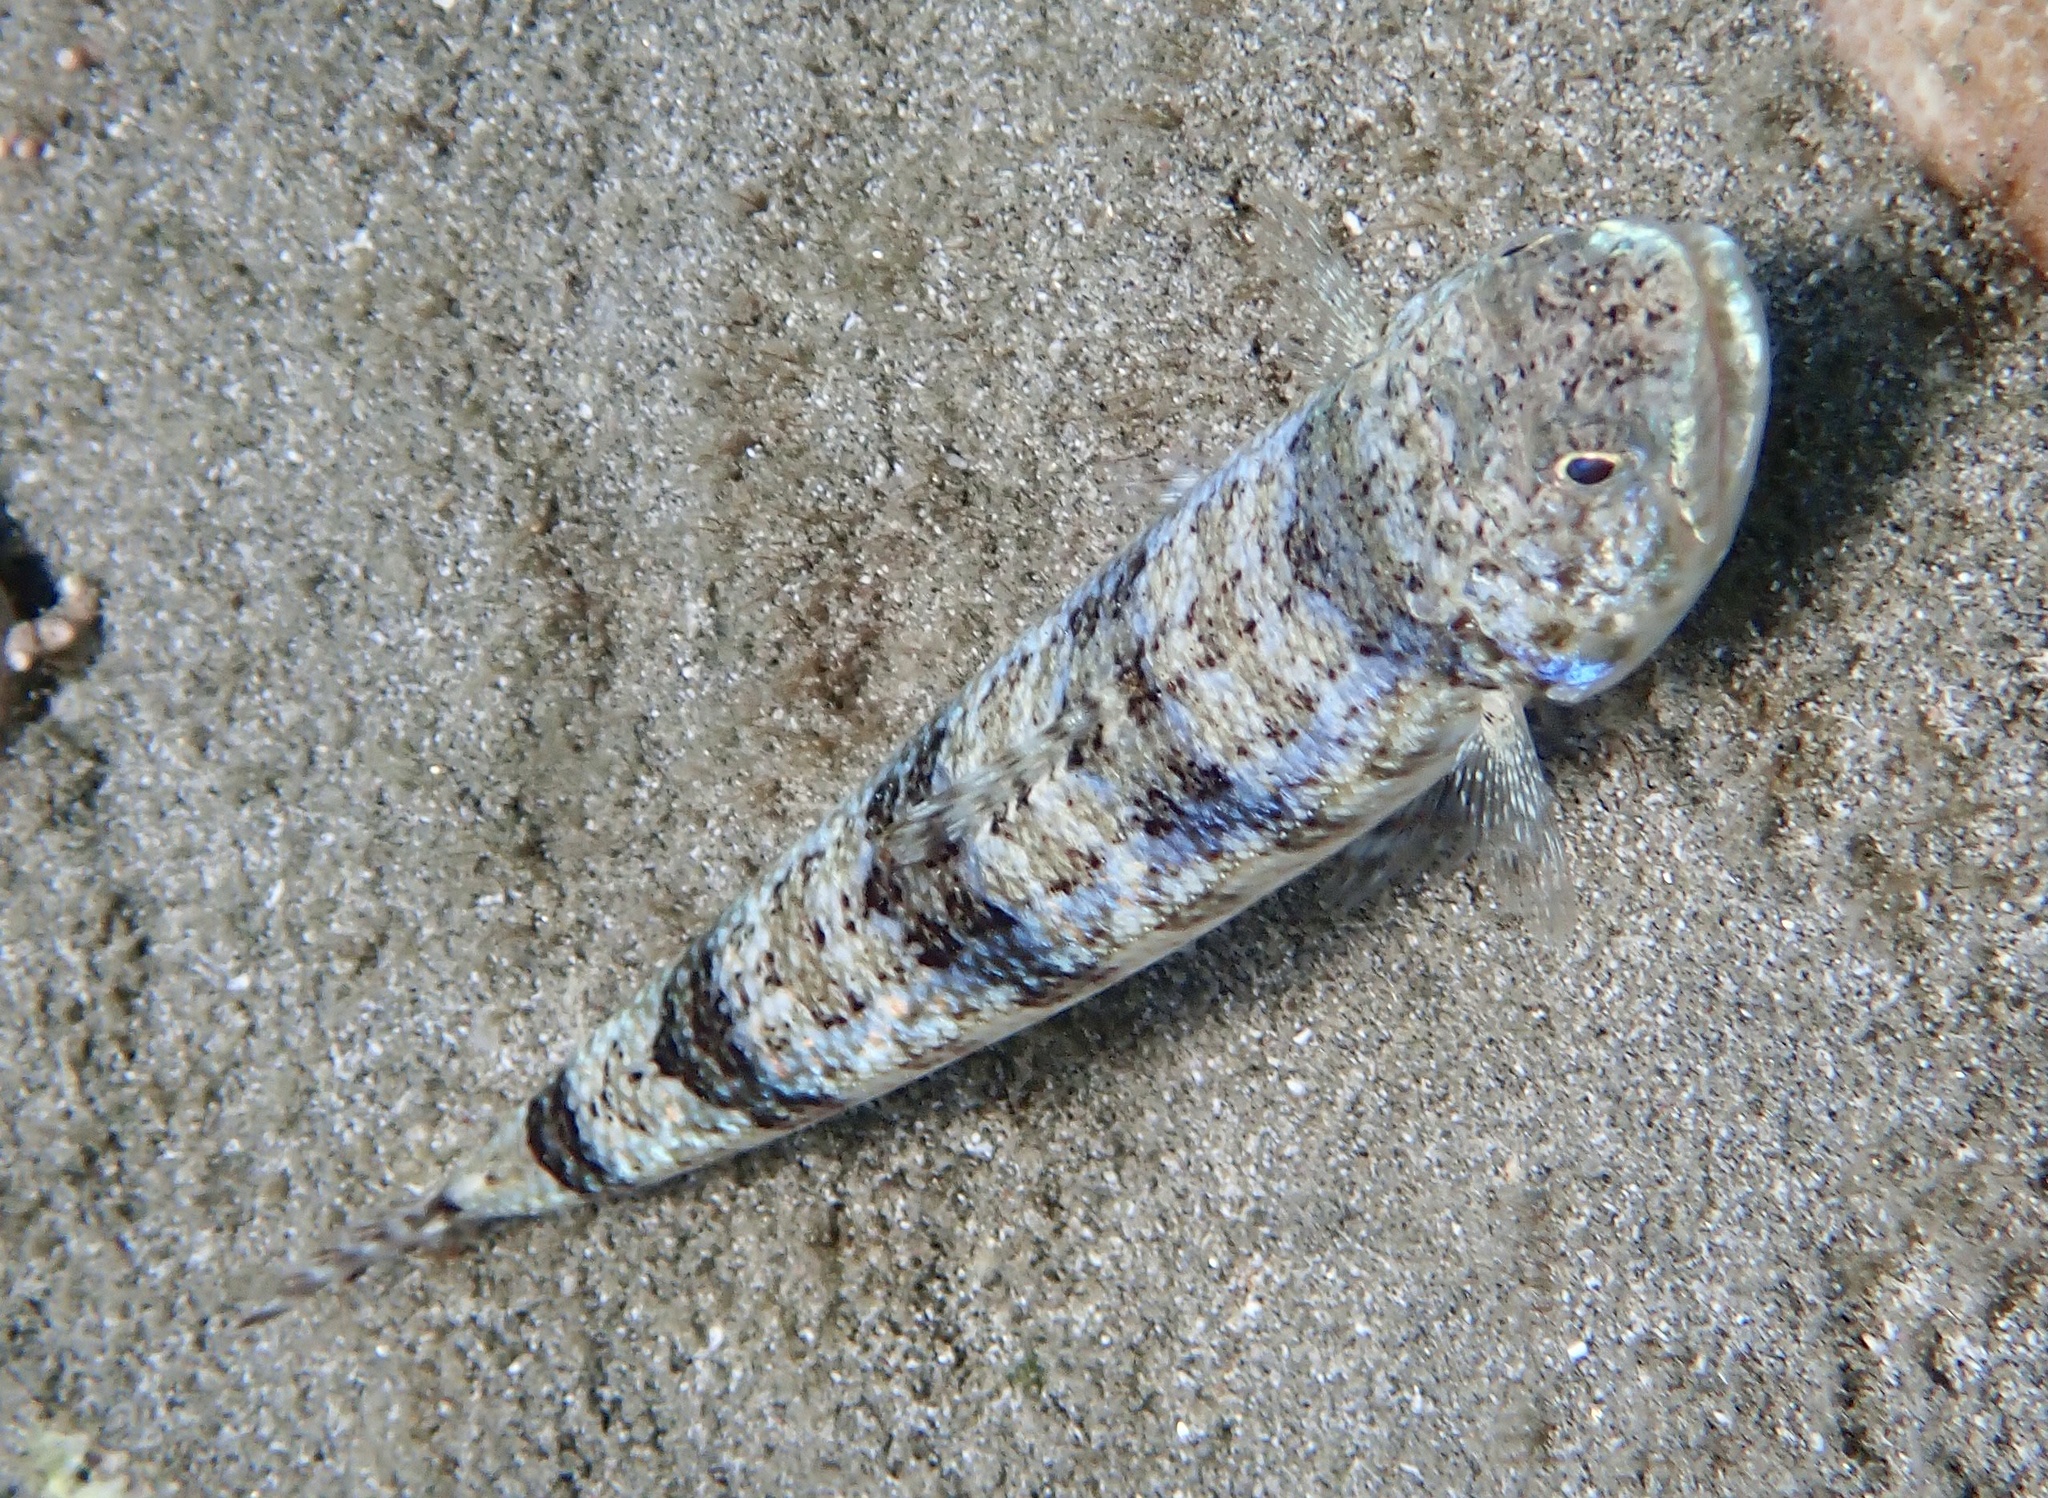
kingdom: Animalia
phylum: Chordata
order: Aulopiformes
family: Synodontidae
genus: Synodus
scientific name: Synodus dermatogenys
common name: Banded lizardfish
